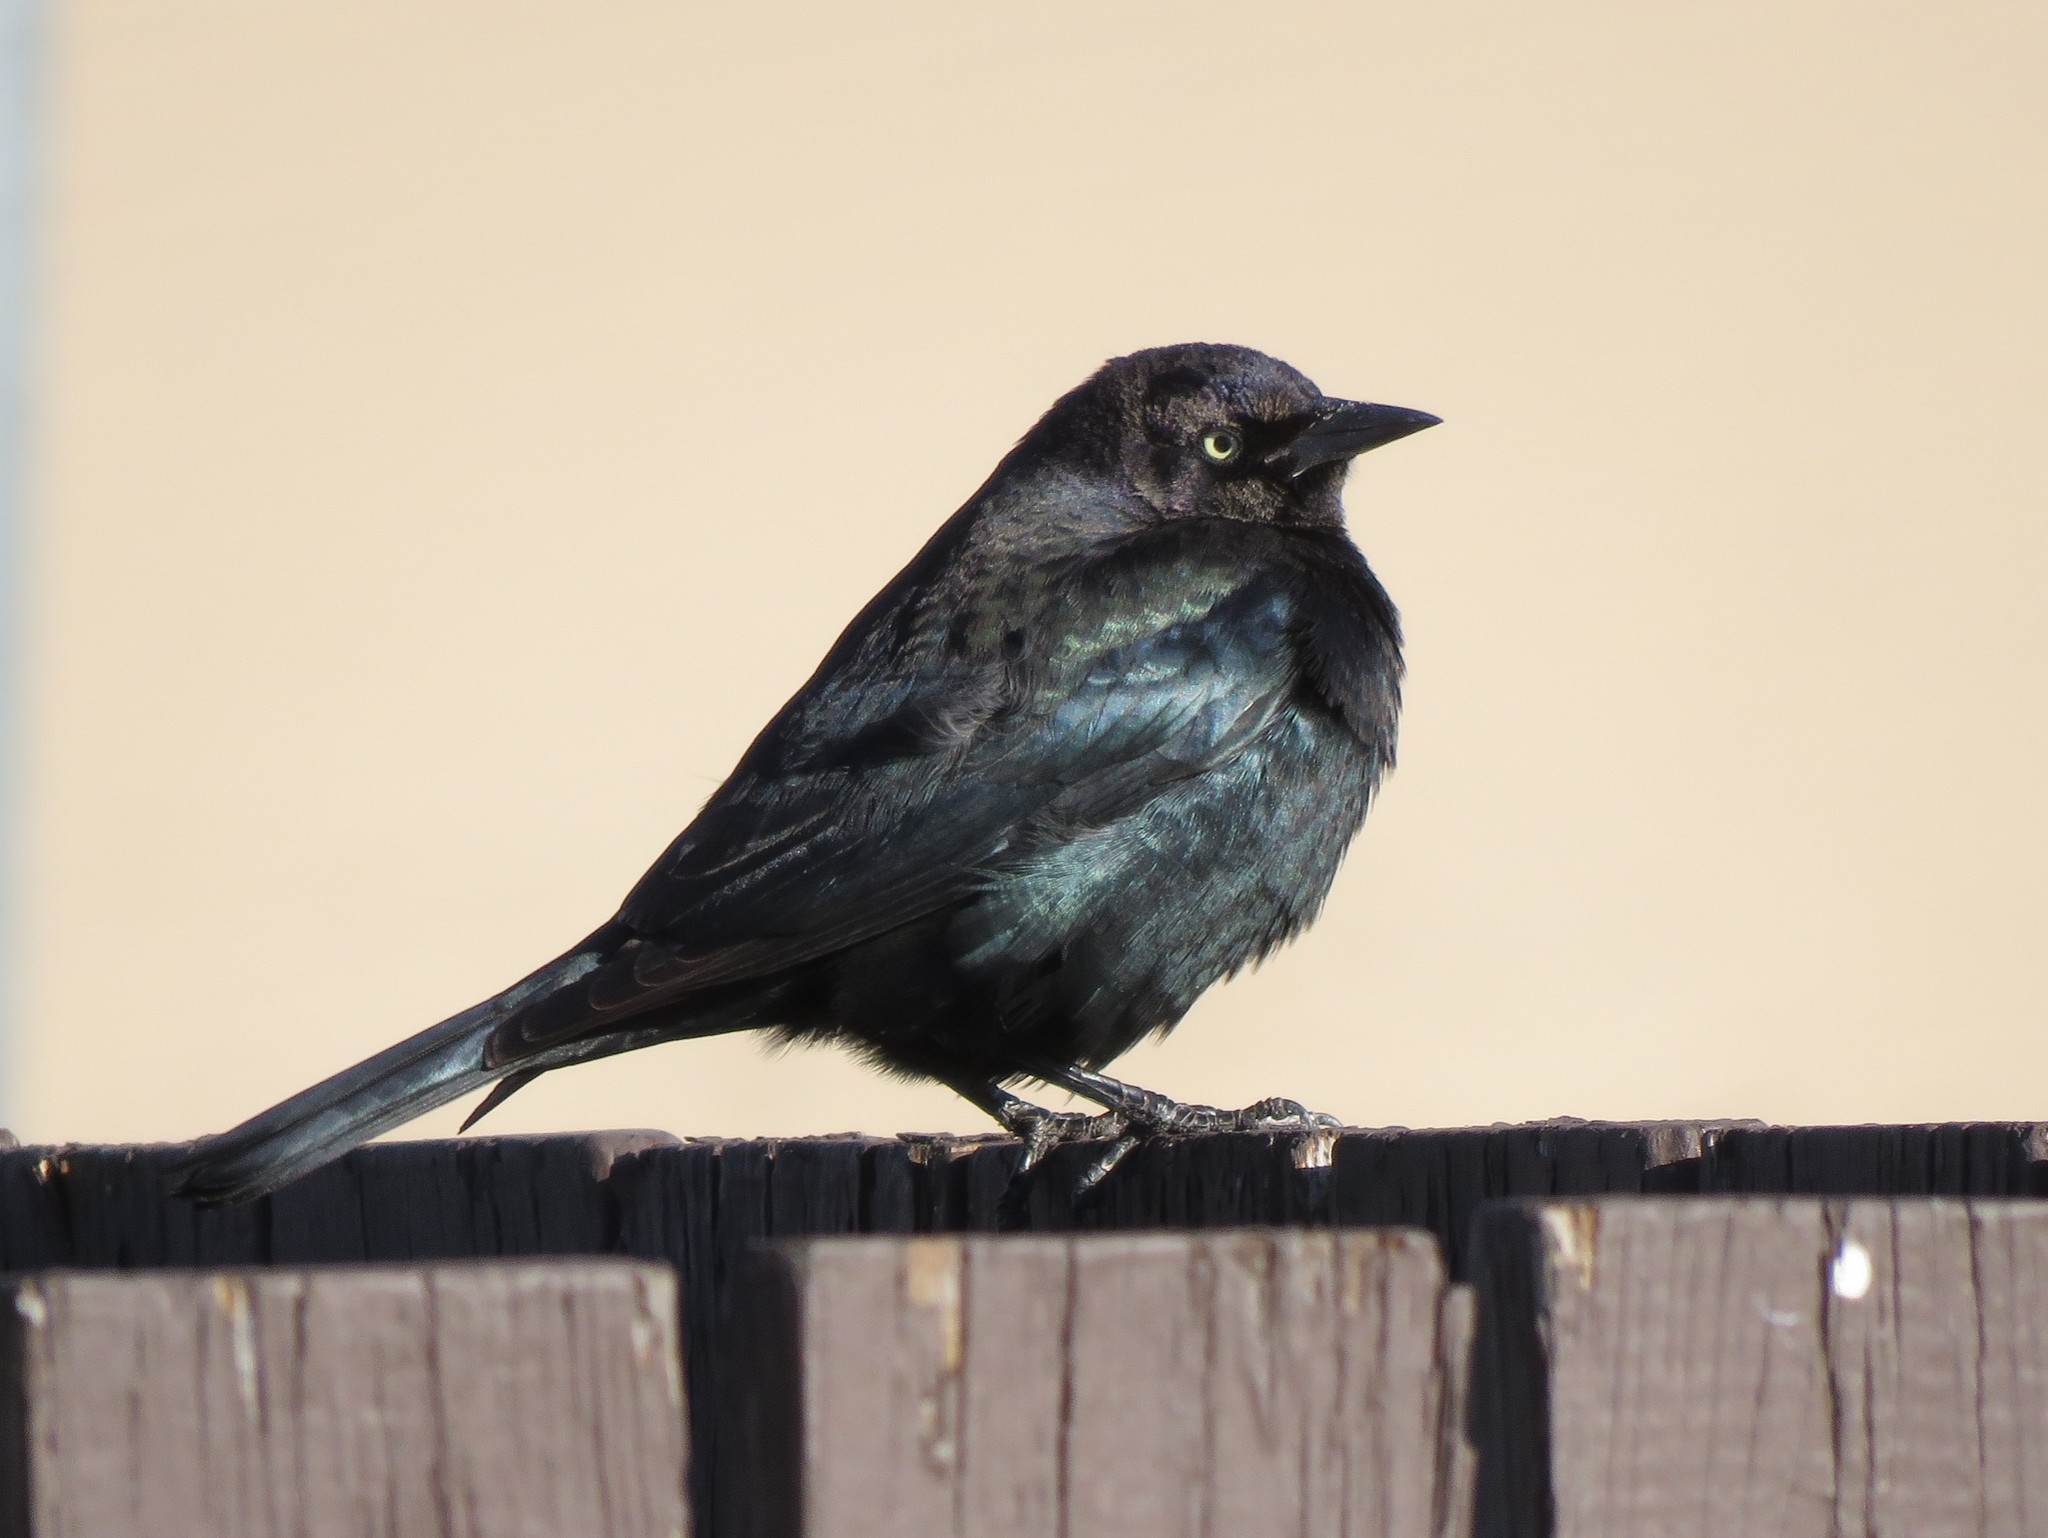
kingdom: Animalia
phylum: Chordata
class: Aves
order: Passeriformes
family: Icteridae
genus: Euphagus
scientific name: Euphagus cyanocephalus
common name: Brewer's blackbird
